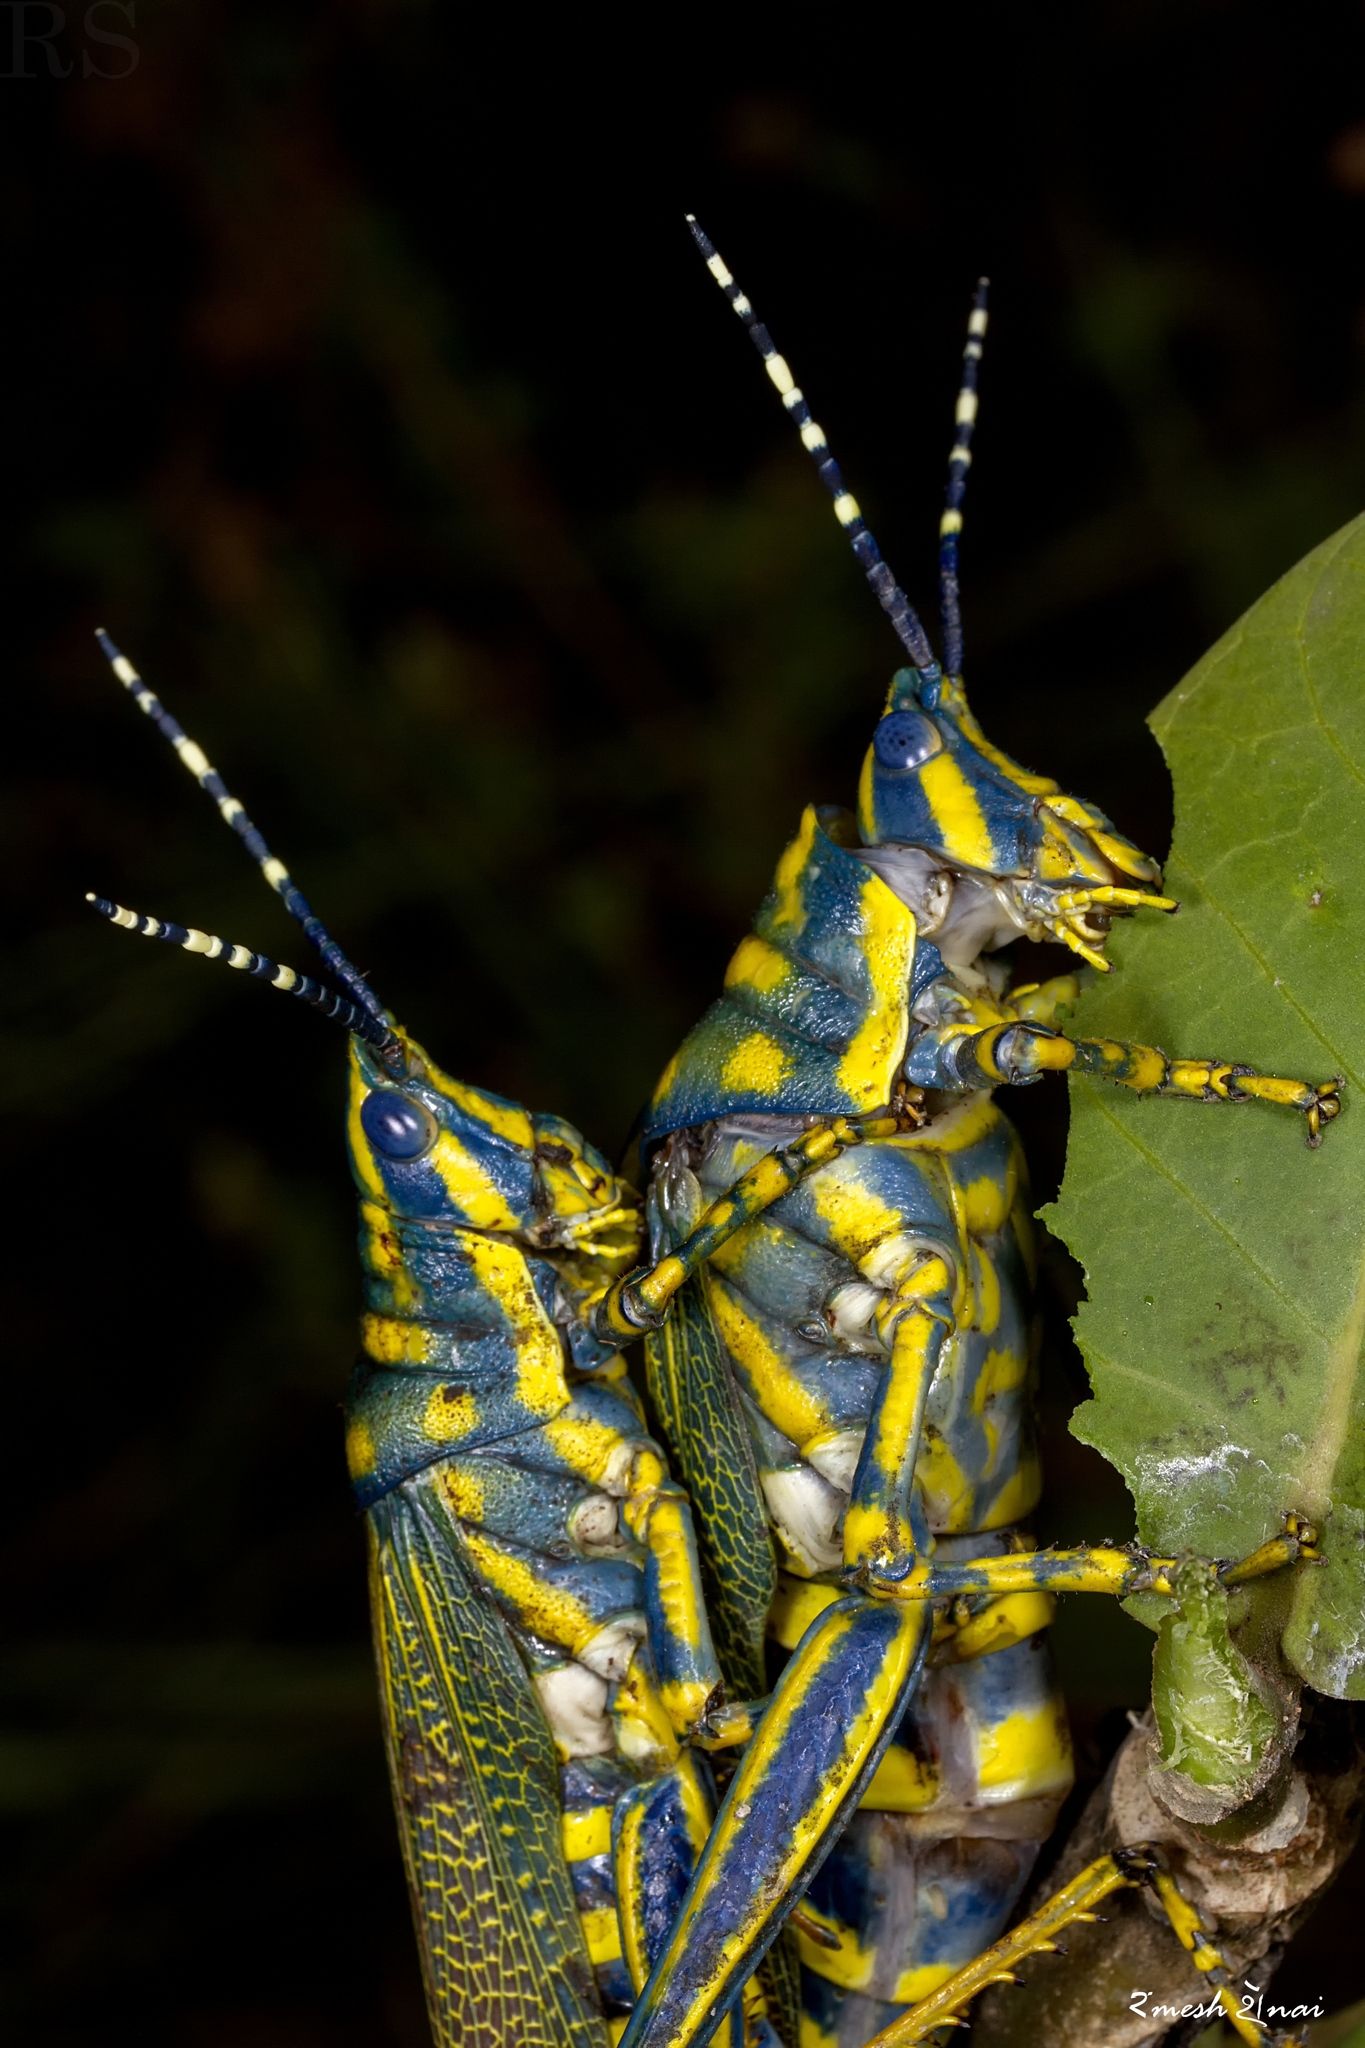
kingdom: Animalia
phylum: Arthropoda
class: Insecta
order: Orthoptera
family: Pyrgomorphidae
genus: Poekilocerus
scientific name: Poekilocerus pictus
